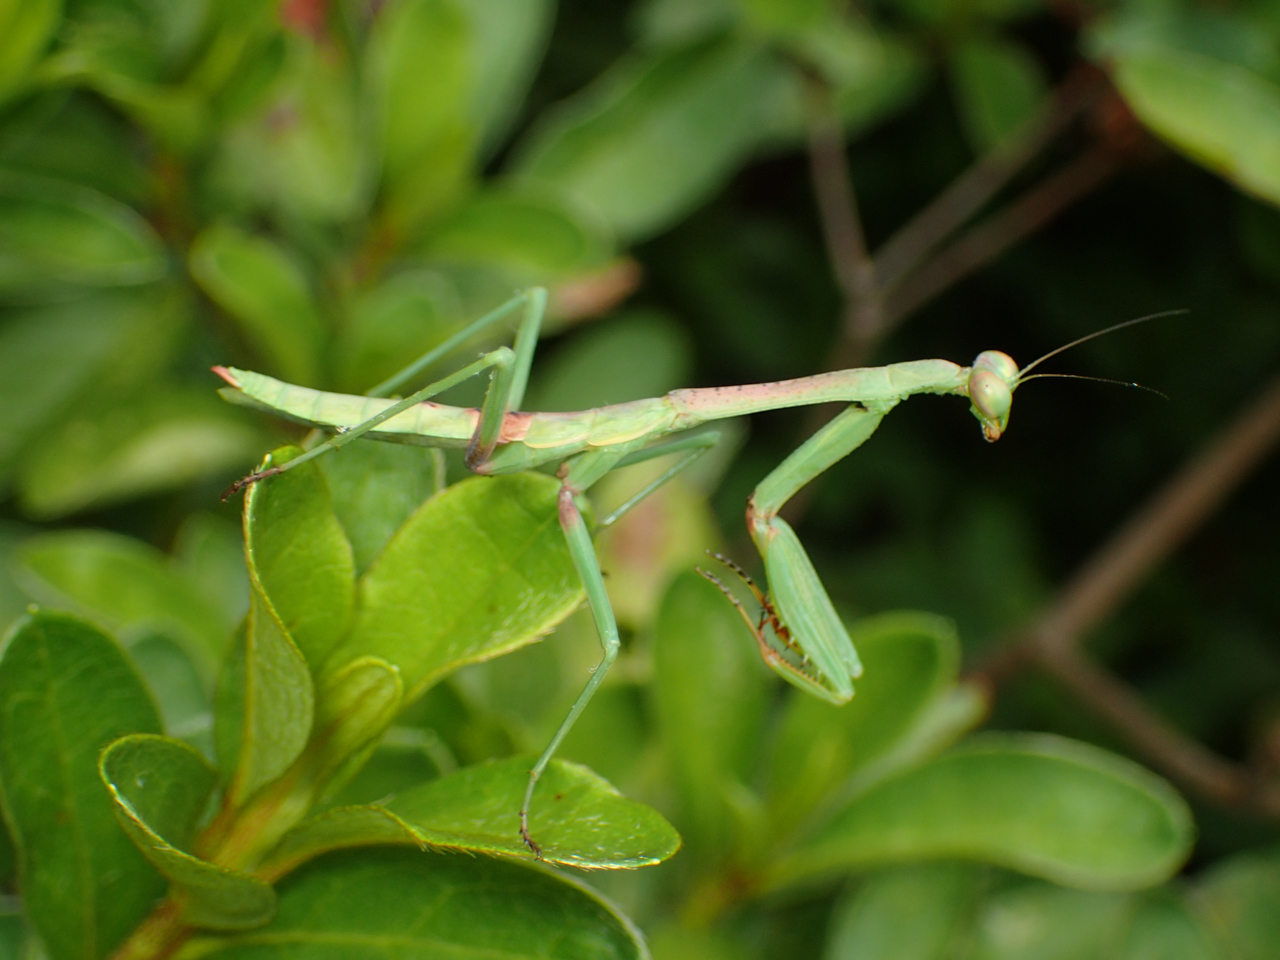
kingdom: Animalia
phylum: Arthropoda
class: Insecta
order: Mantodea
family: Mantidae
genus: Stagmomantis
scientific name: Stagmomantis carolina
